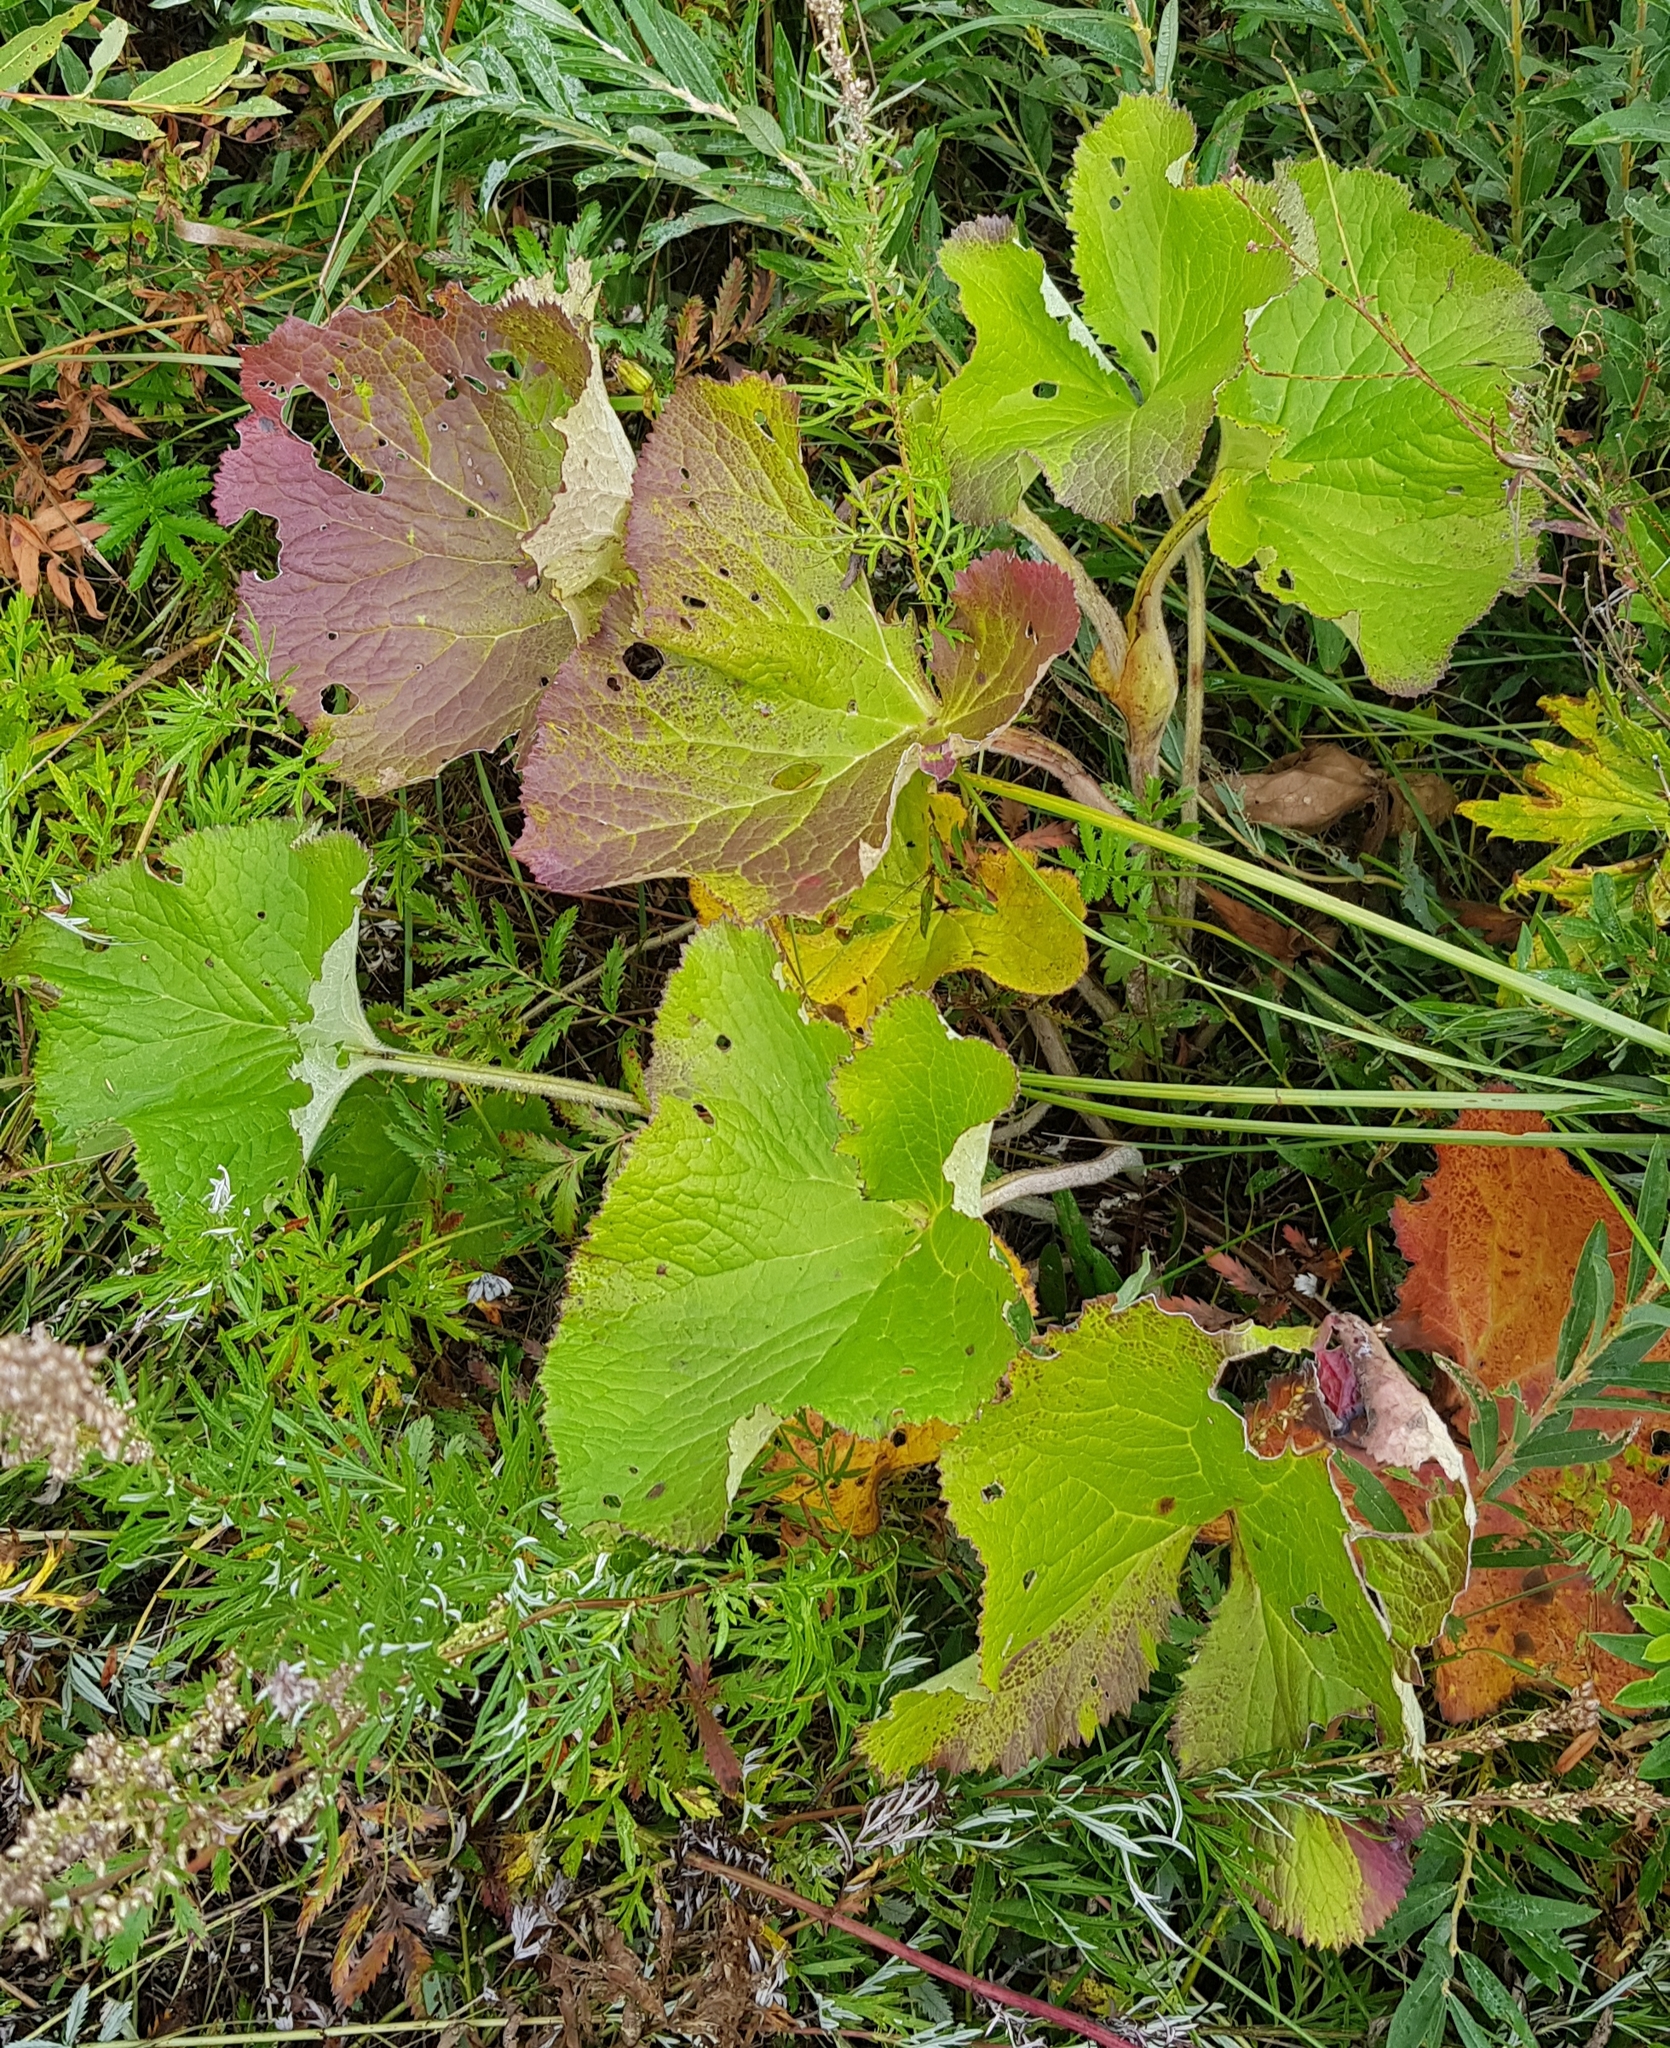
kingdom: Plantae
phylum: Tracheophyta
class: Magnoliopsida
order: Asterales
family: Asteraceae
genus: Ligularia
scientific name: Ligularia sibirica
